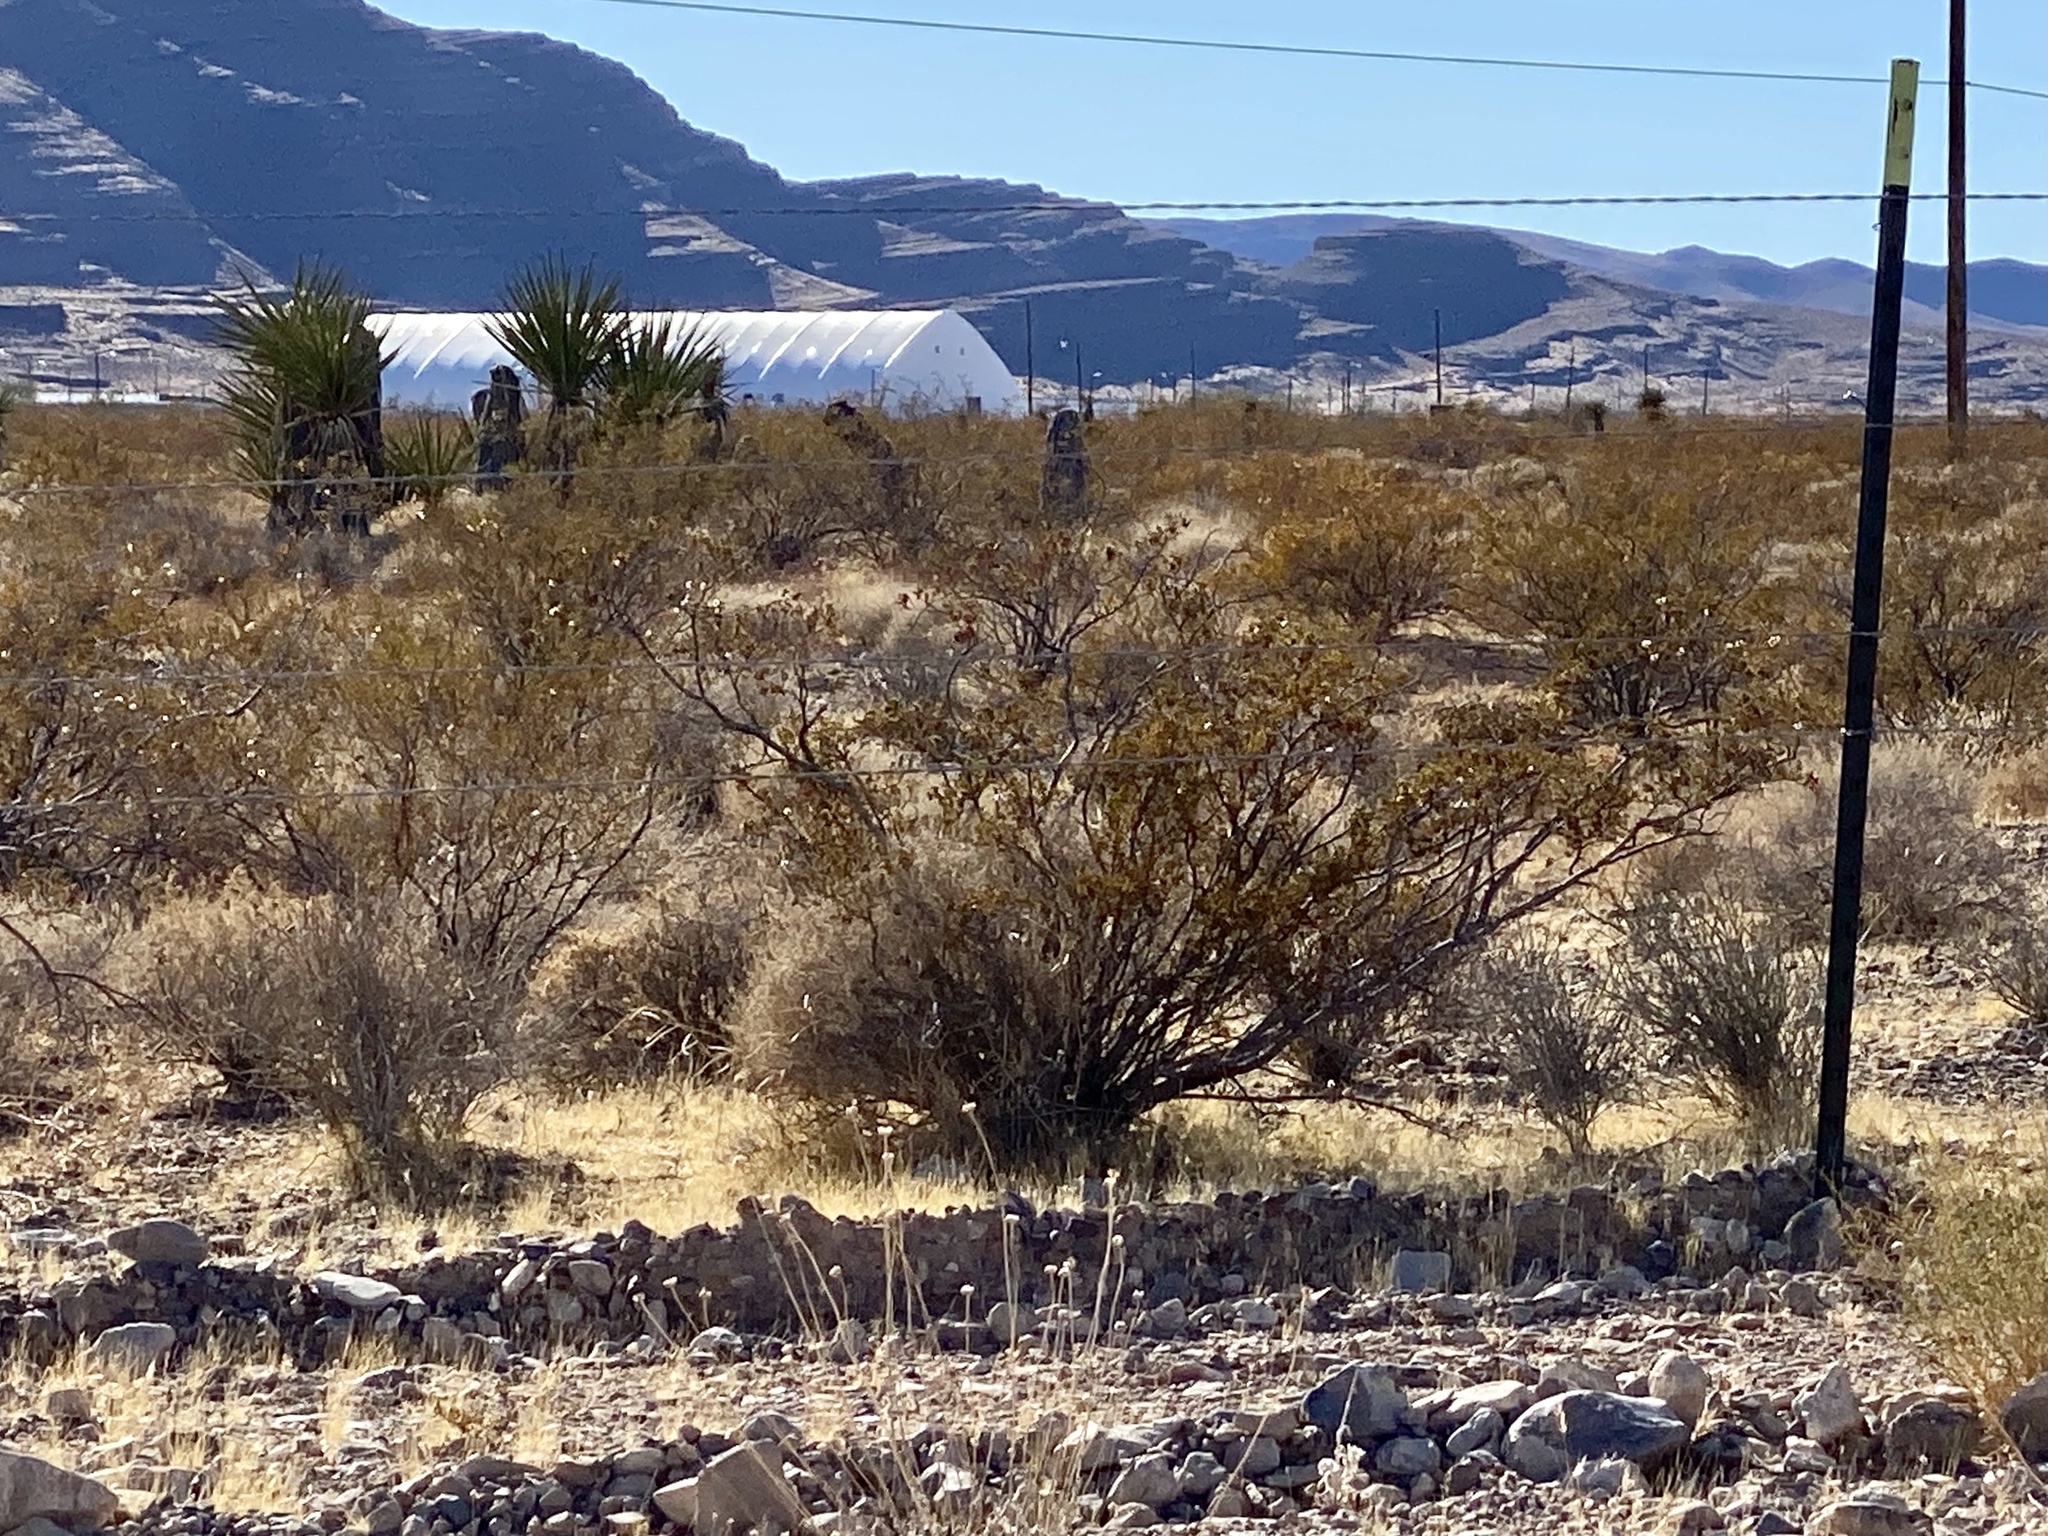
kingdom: Plantae
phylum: Tracheophyta
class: Magnoliopsida
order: Zygophyllales
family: Zygophyllaceae
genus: Larrea
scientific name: Larrea tridentata
